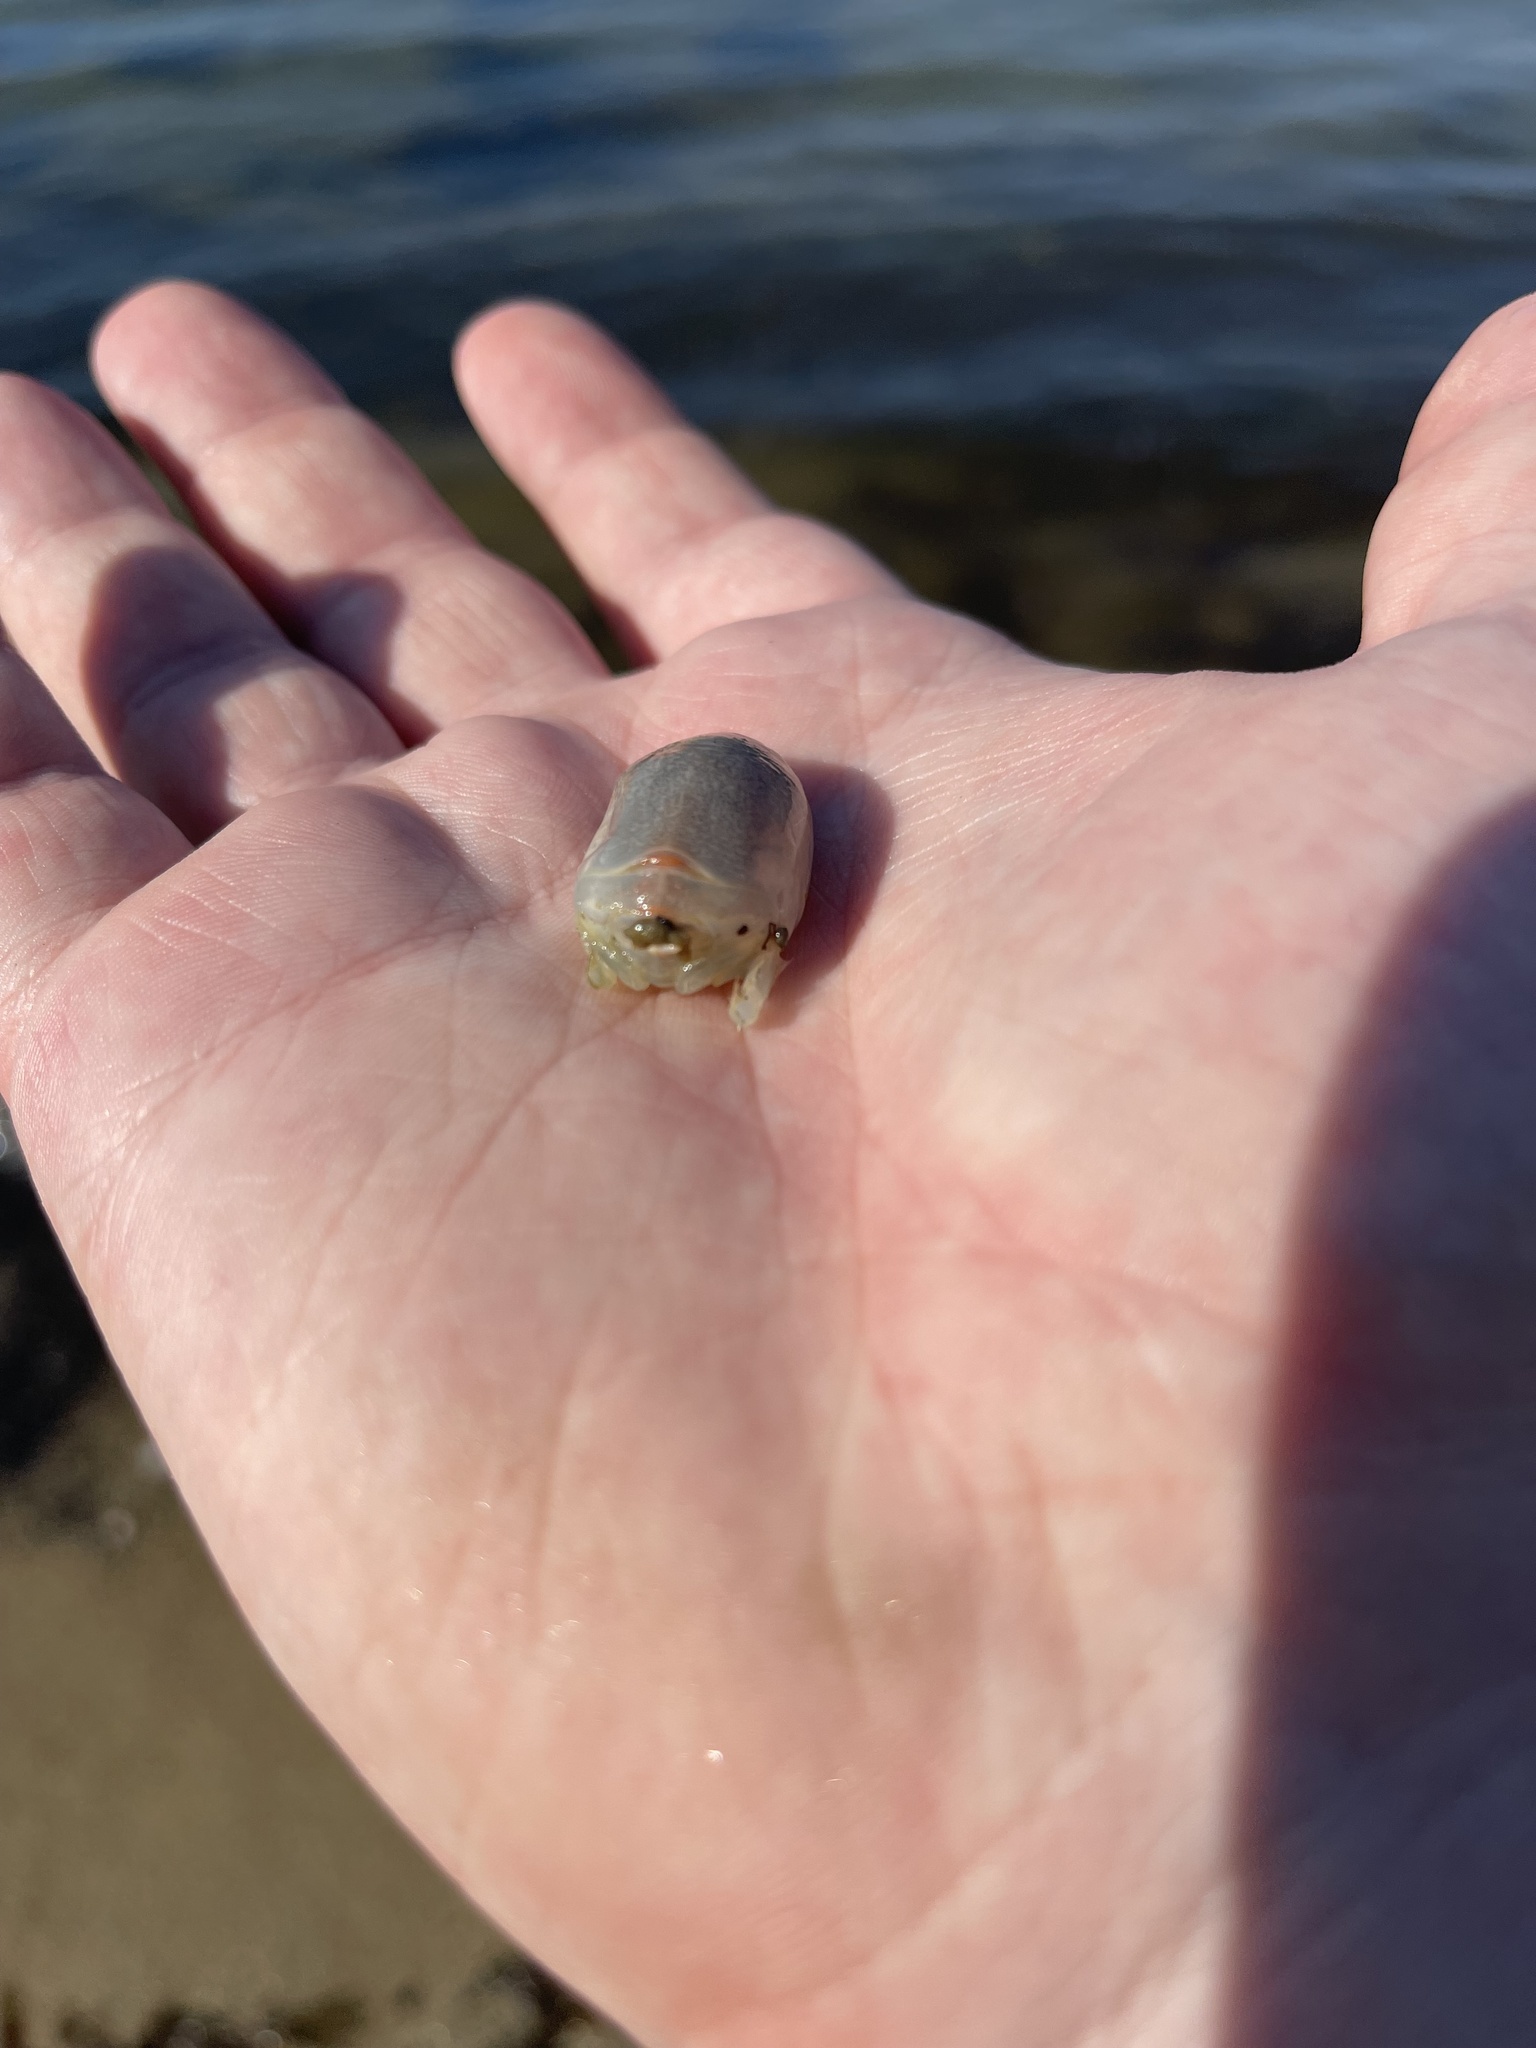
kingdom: Animalia
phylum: Arthropoda
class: Malacostraca
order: Decapoda
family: Hippidae
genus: Emerita
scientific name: Emerita talpoida
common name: Atlantic sand crab
